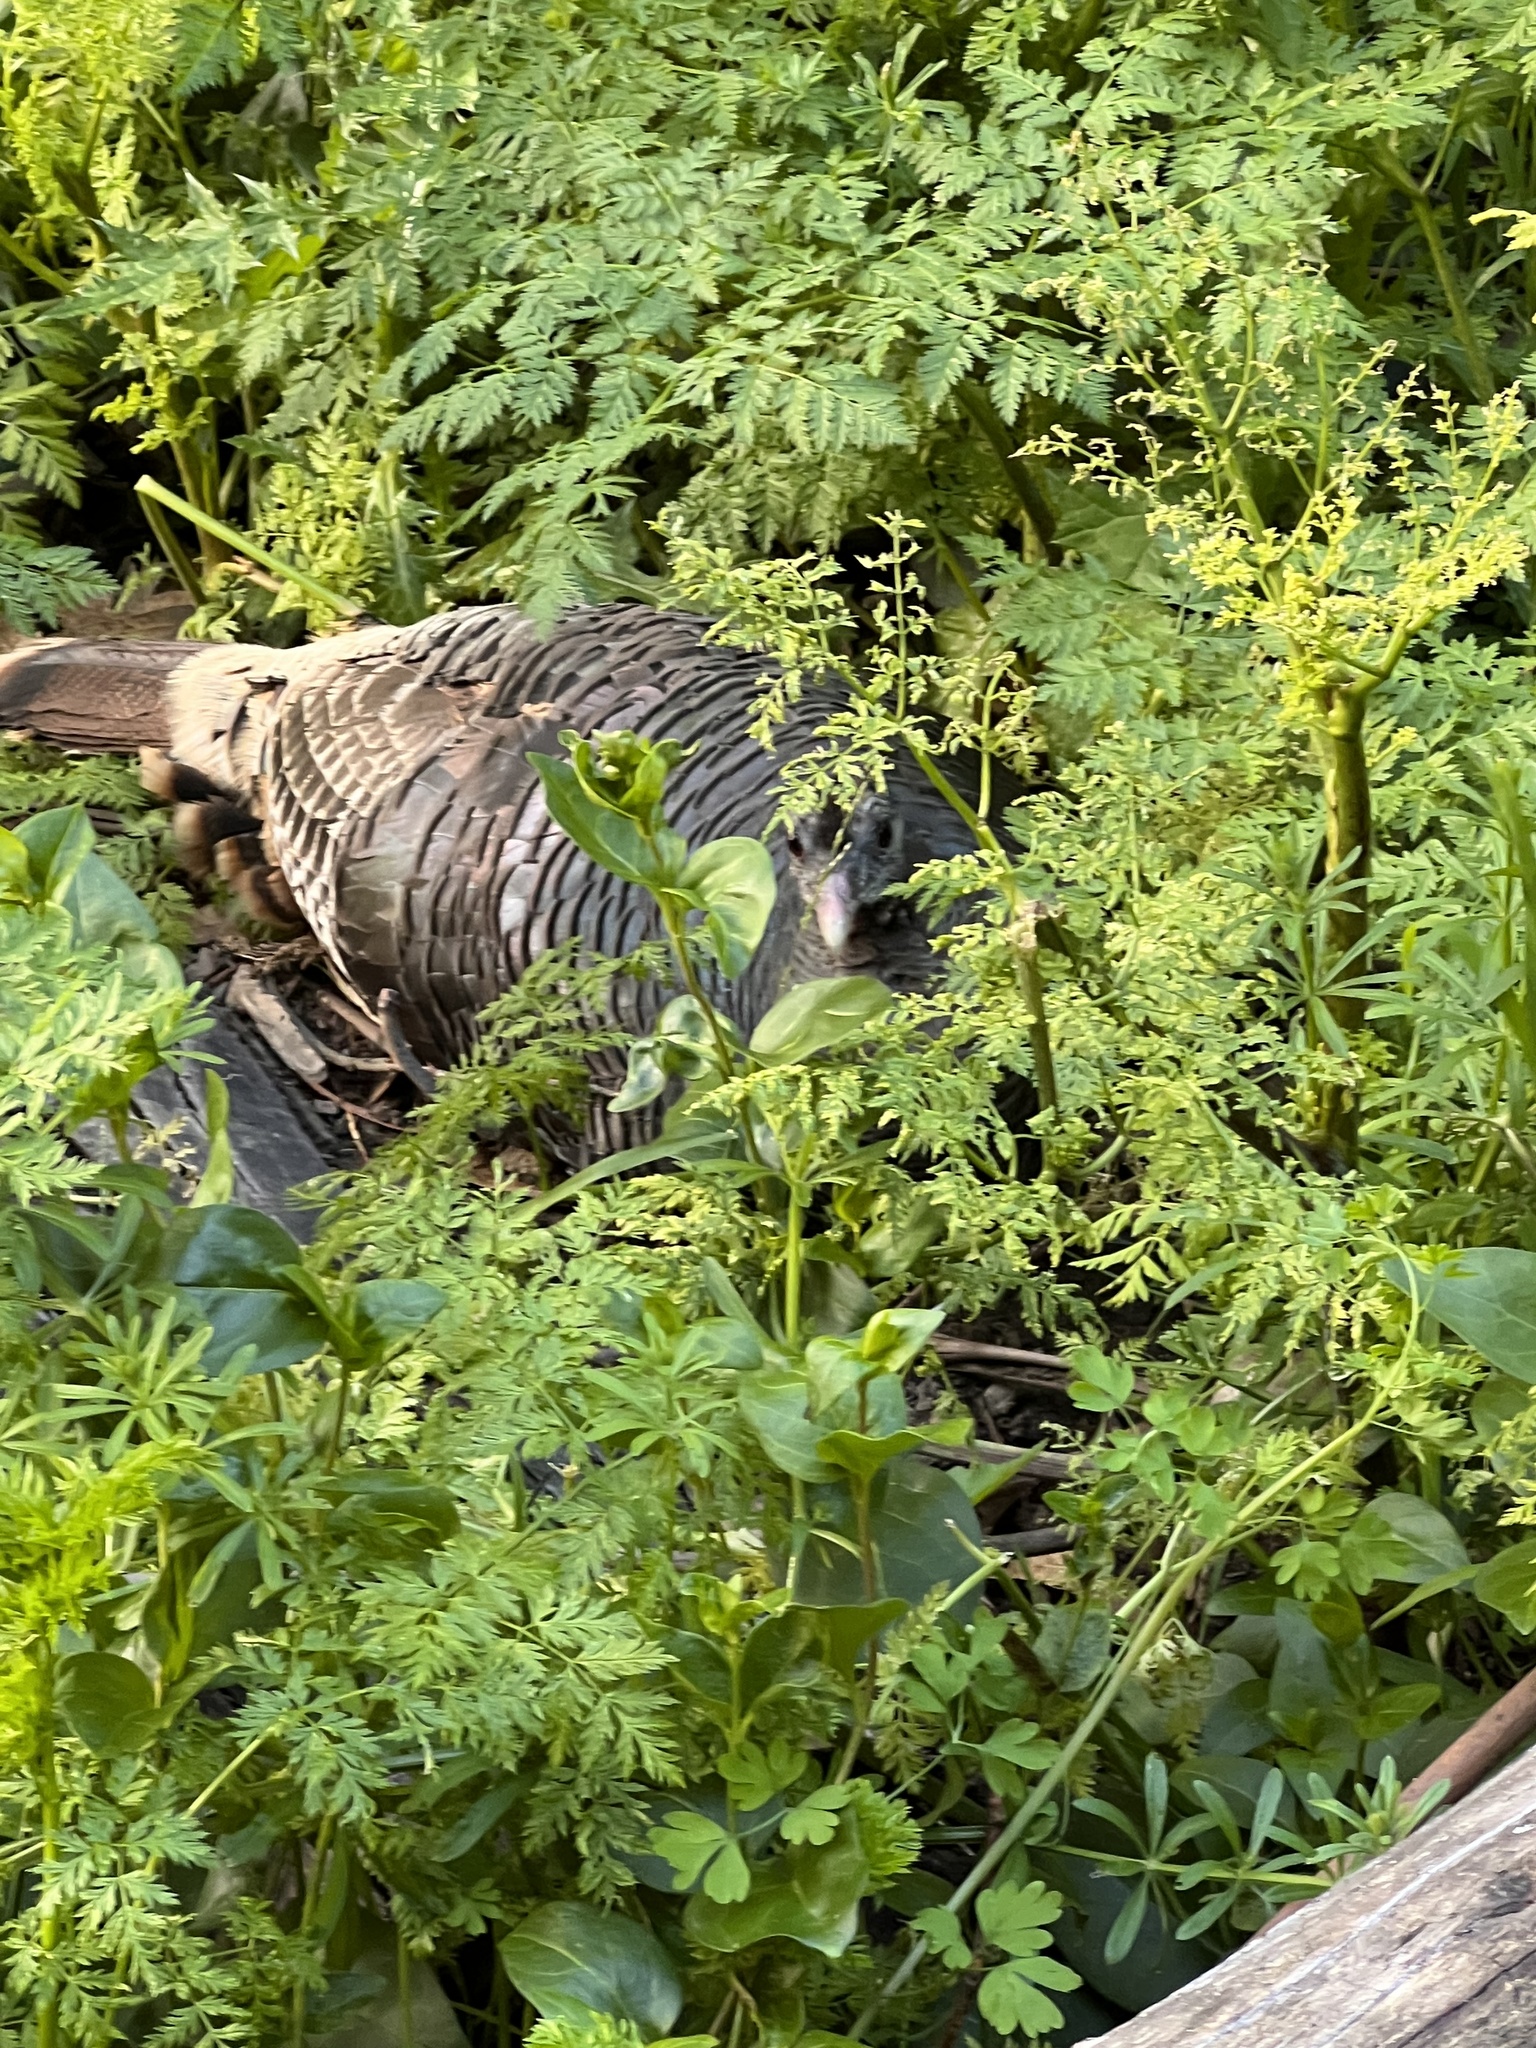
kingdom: Animalia
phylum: Chordata
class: Aves
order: Galliformes
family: Phasianidae
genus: Meleagris
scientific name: Meleagris gallopavo
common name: Wild turkey
